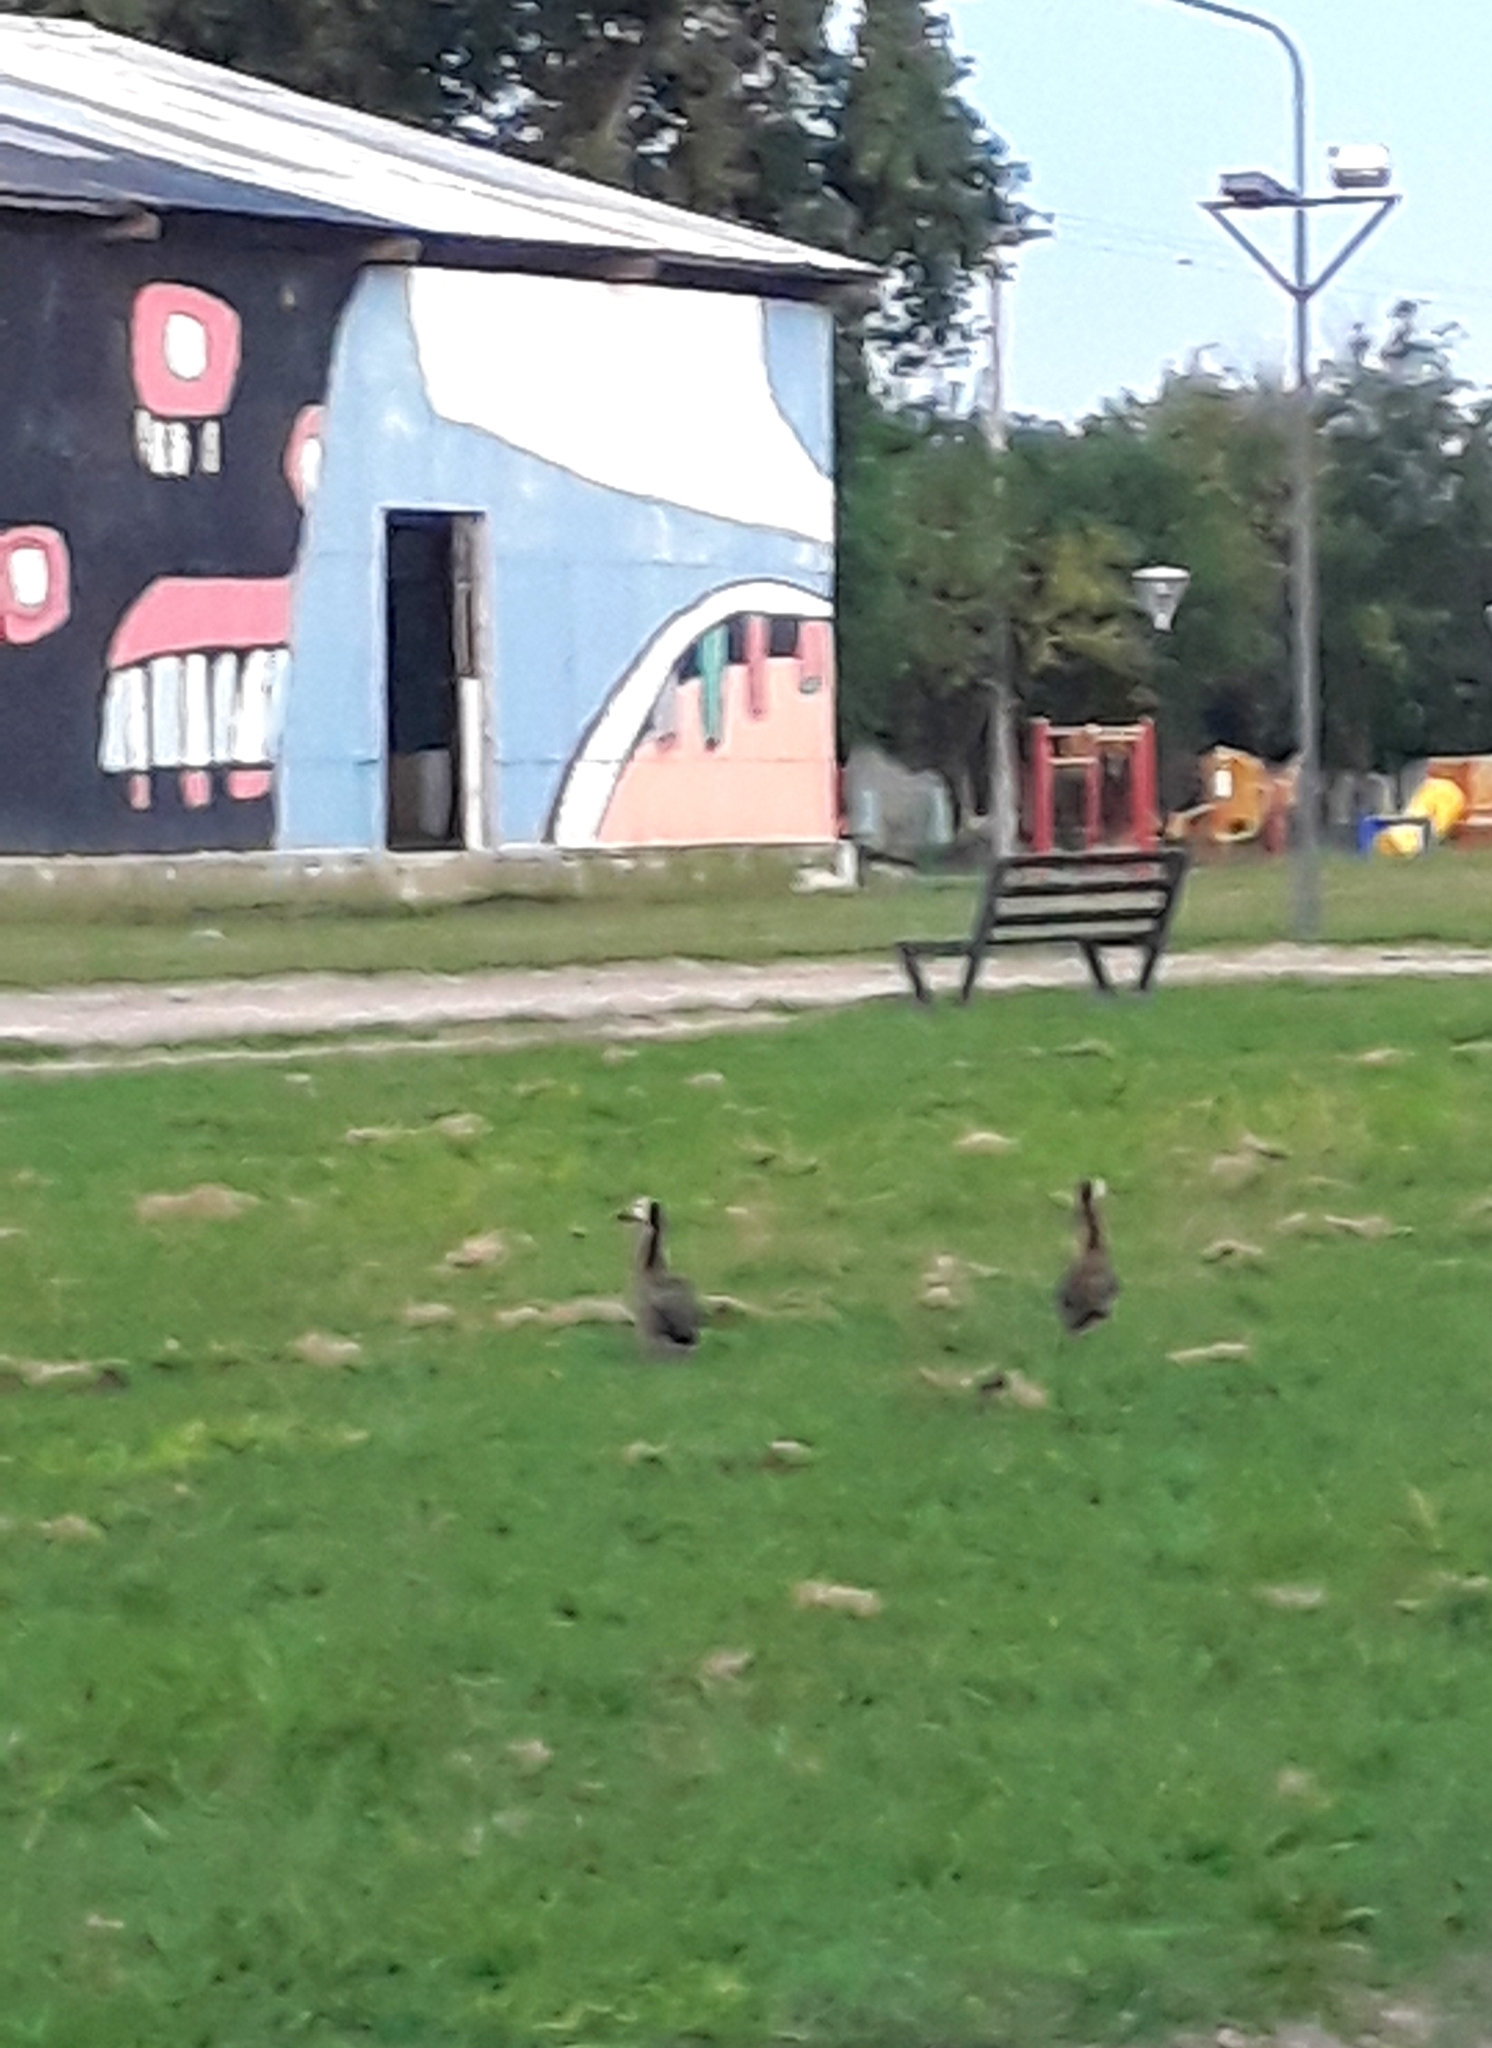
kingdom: Animalia
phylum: Chordata
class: Aves
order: Anseriformes
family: Anatidae
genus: Dendrocygna
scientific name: Dendrocygna viduata
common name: White-faced whistling duck
